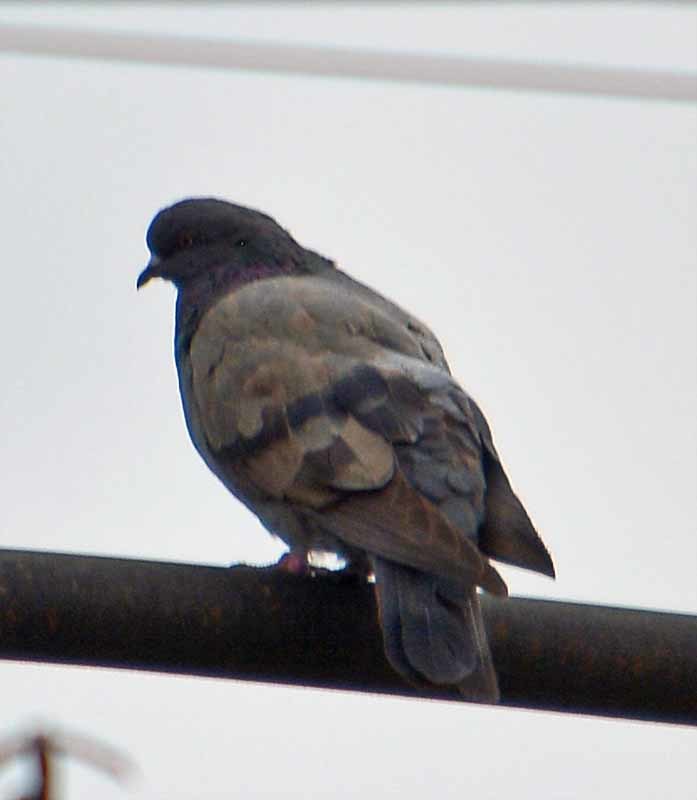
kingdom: Animalia
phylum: Chordata
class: Aves
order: Columbiformes
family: Columbidae
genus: Columba
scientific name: Columba livia
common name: Rock pigeon
